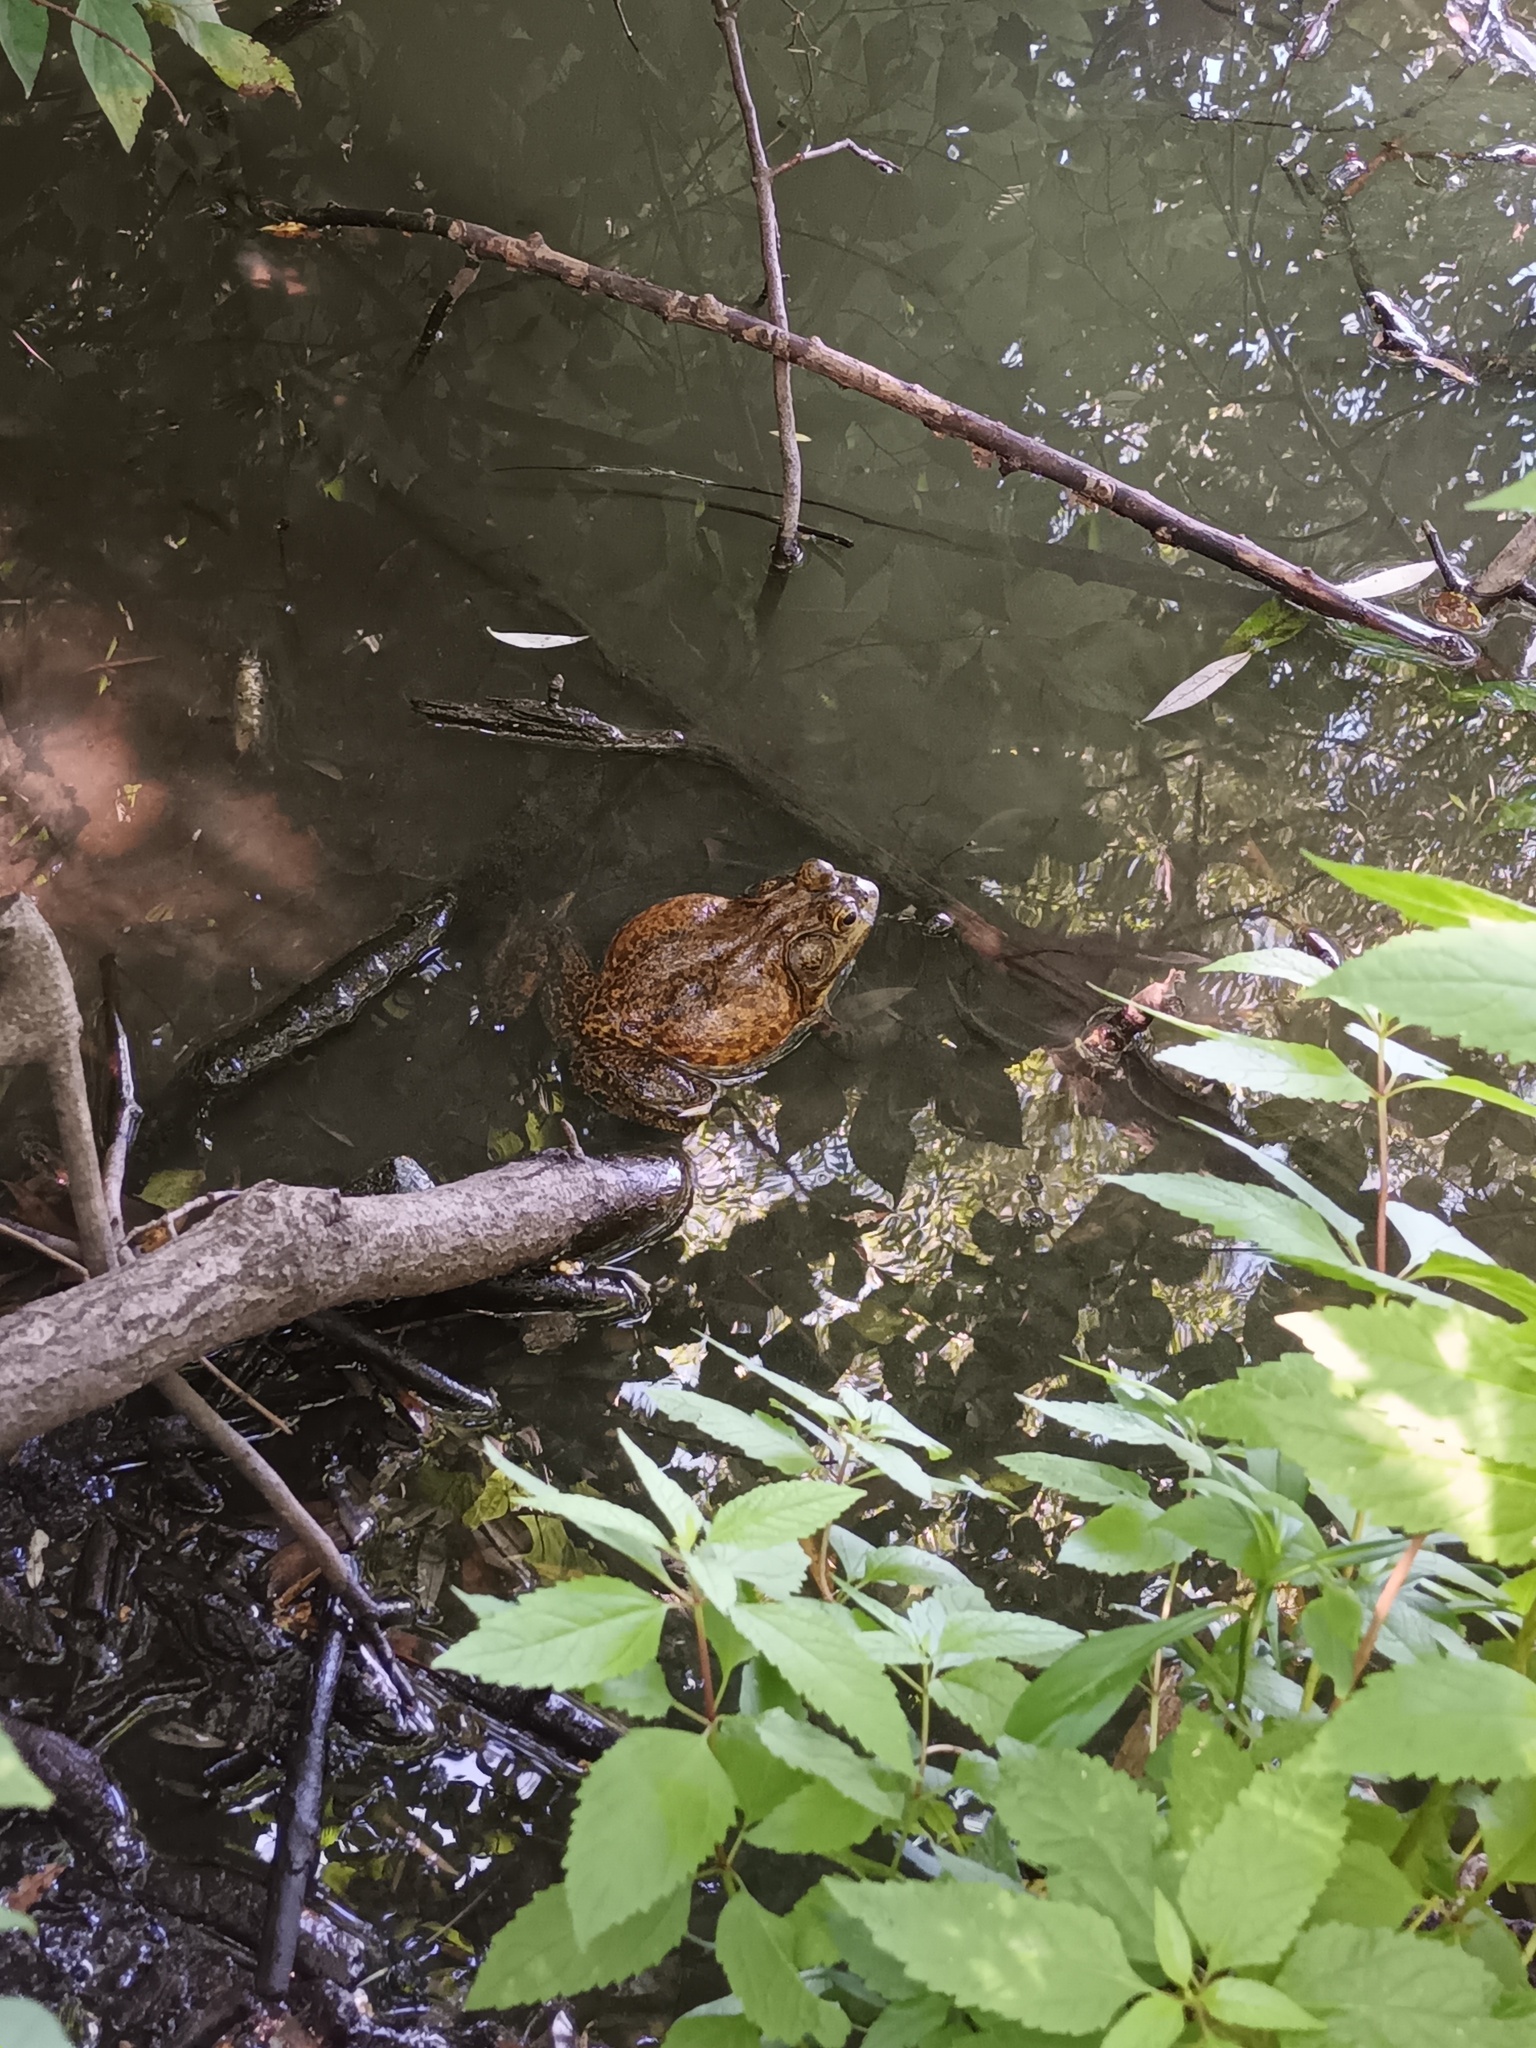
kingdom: Animalia
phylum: Chordata
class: Amphibia
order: Anura
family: Ranidae
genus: Lithobates
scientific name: Lithobates catesbeianus
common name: American bullfrog
